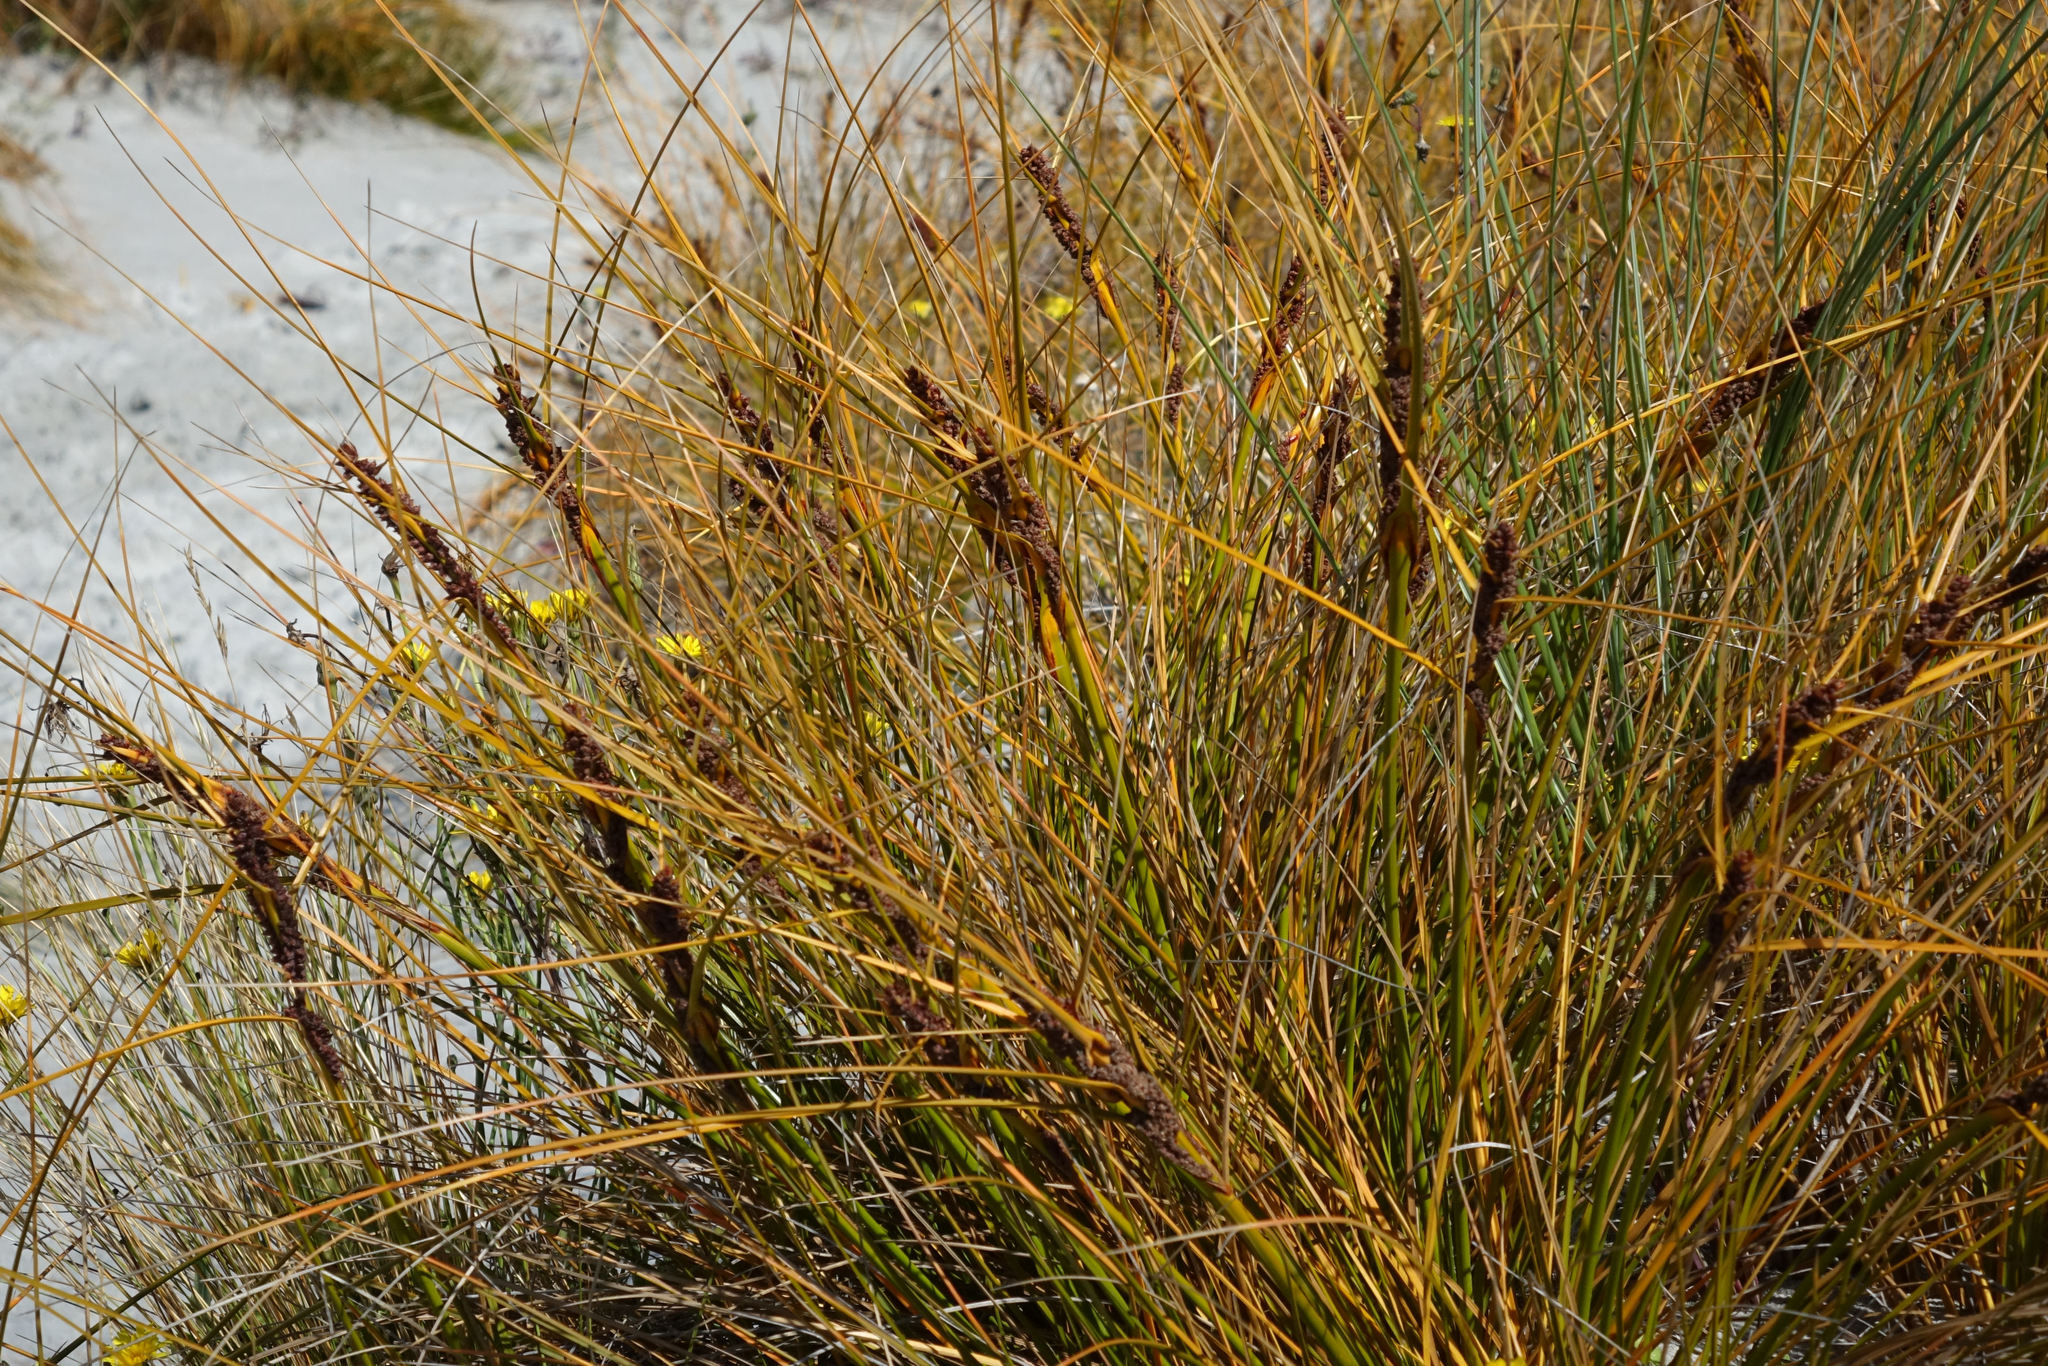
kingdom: Plantae
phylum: Tracheophyta
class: Liliopsida
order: Poales
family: Cyperaceae
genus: Ficinia
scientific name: Ficinia spiralis
